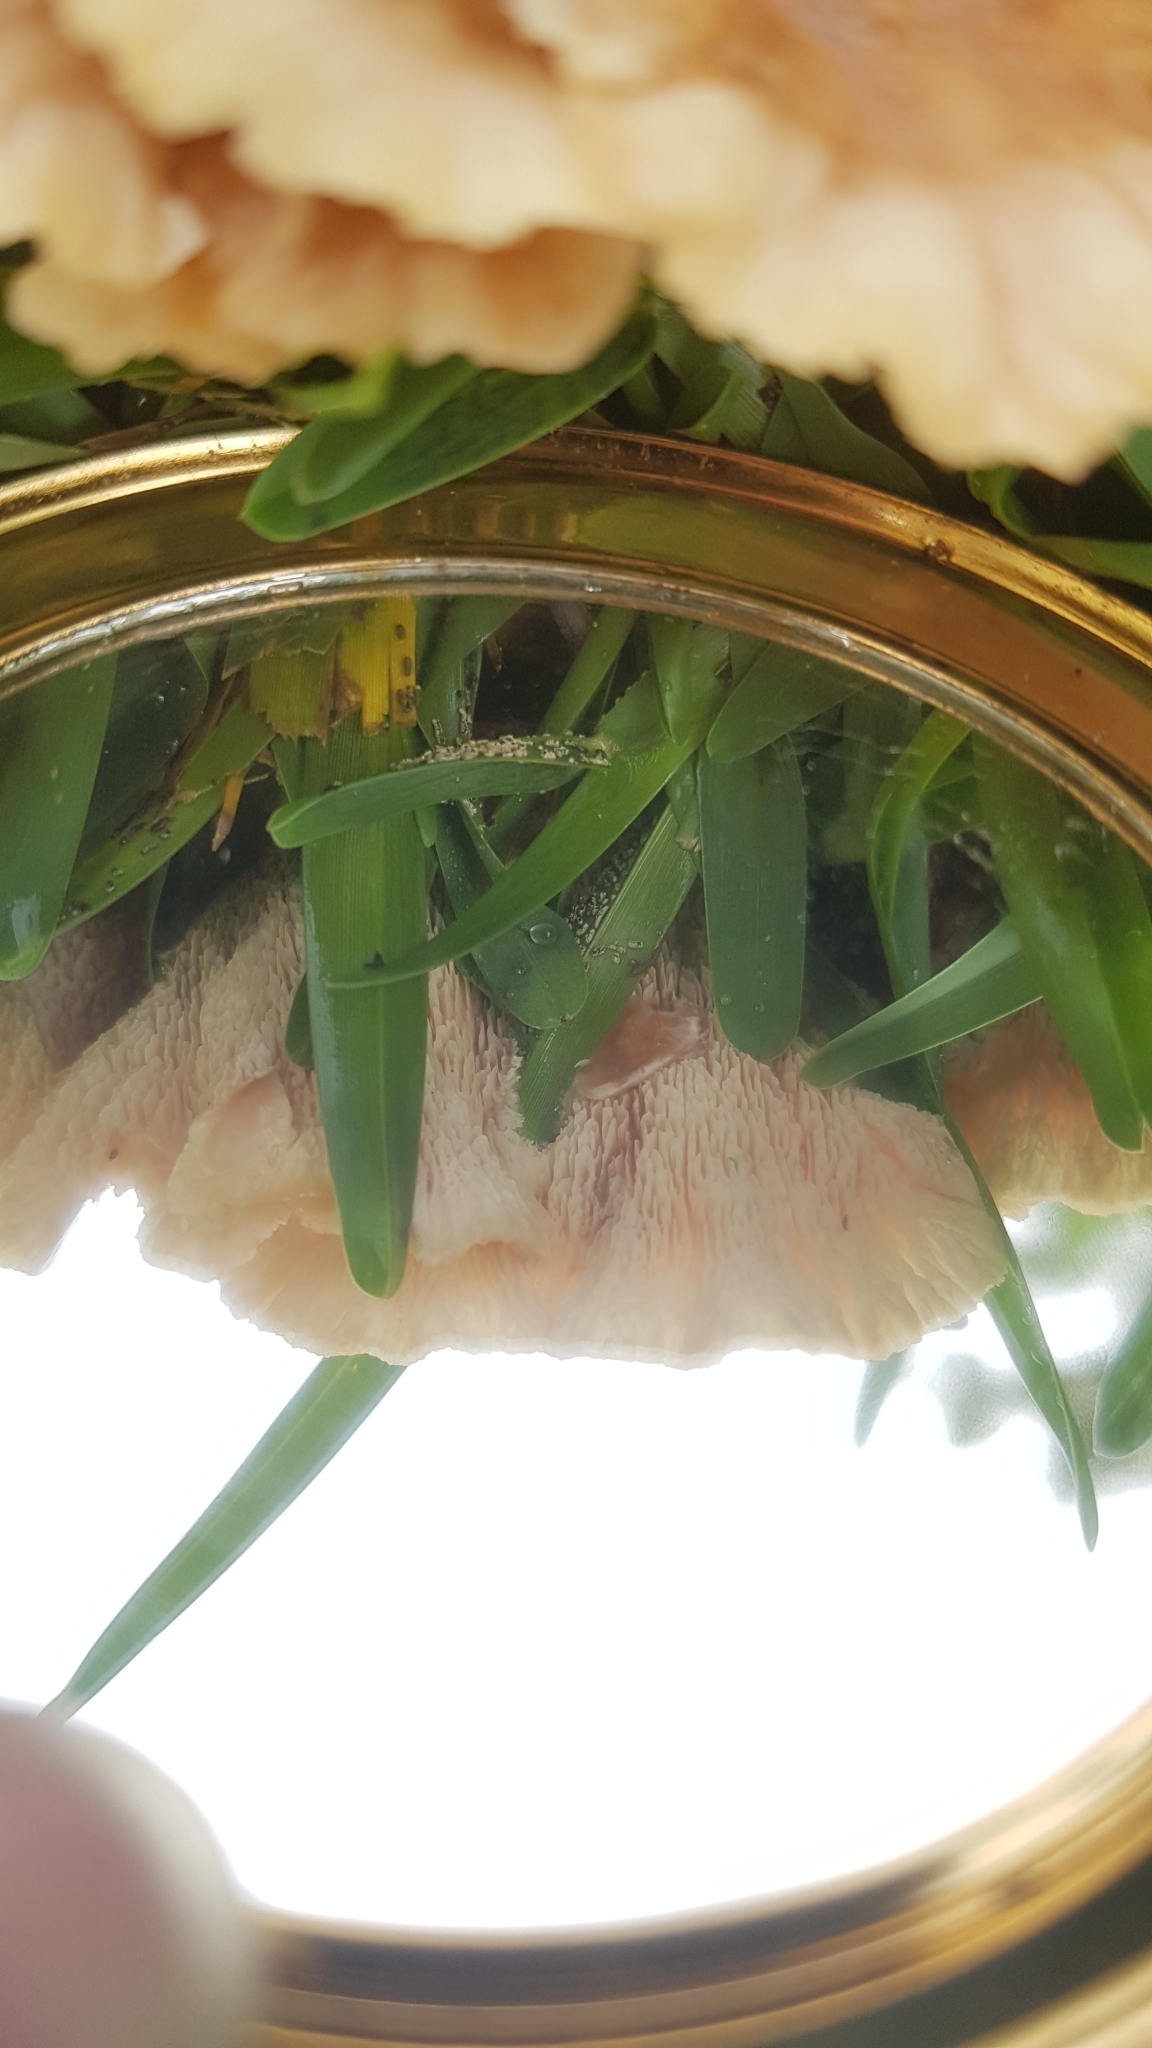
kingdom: Fungi
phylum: Basidiomycota
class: Agaricomycetes
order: Polyporales
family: Podoscyphaceae
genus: Abortiporus
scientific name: Abortiporus biennis
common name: Blushing rosette
